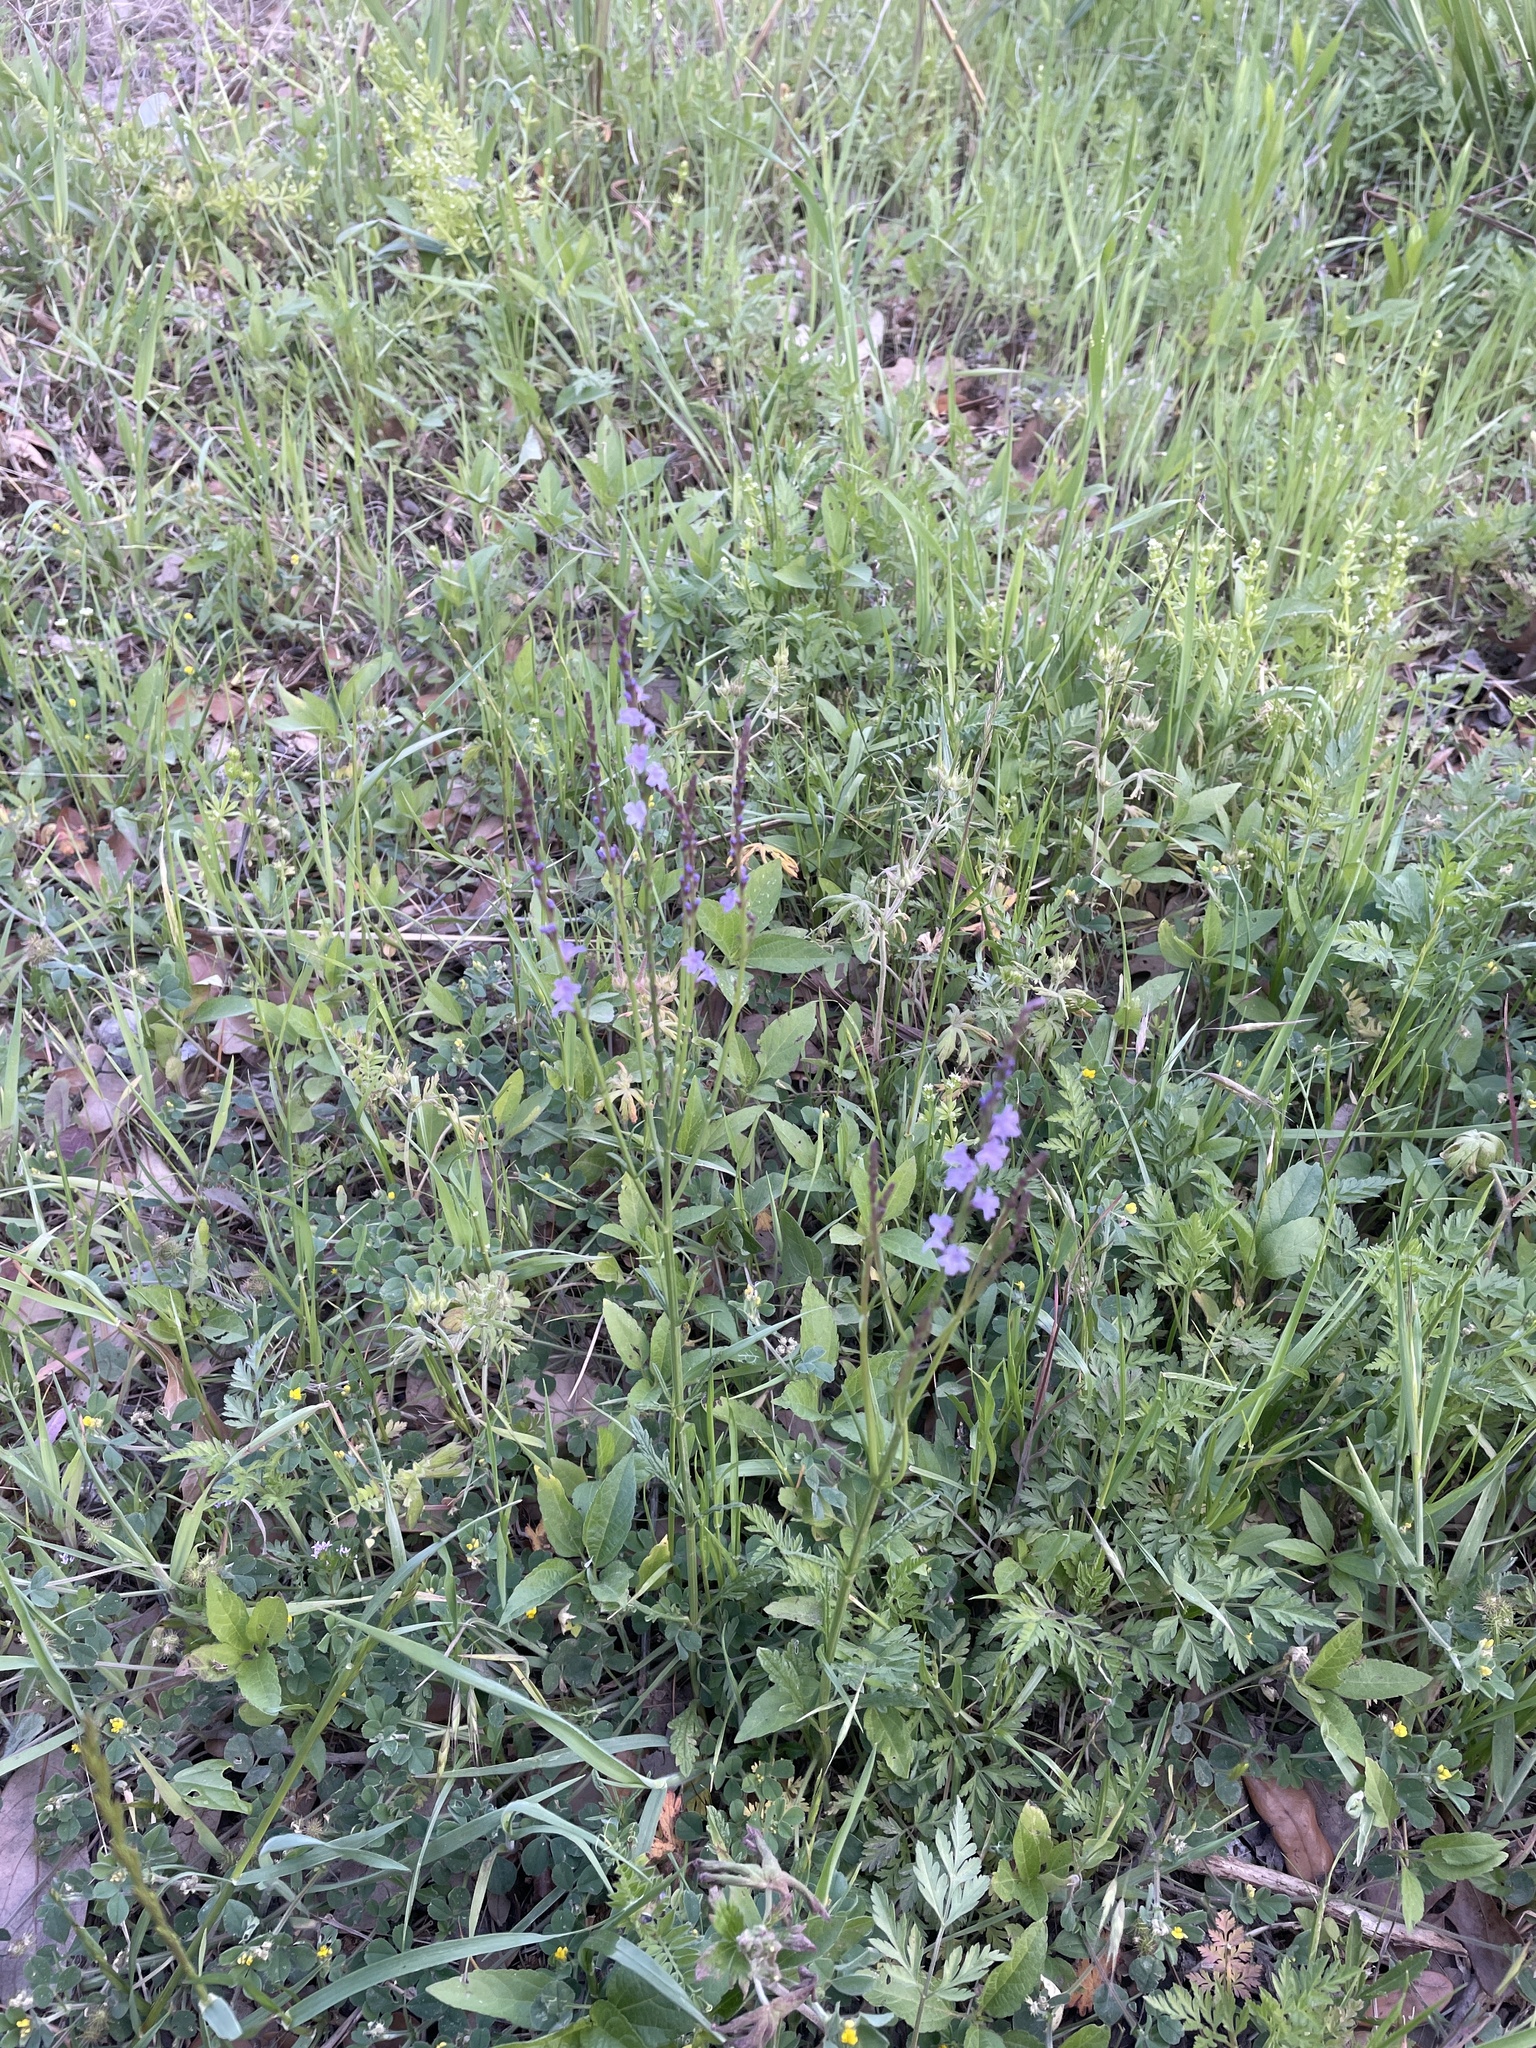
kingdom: Plantae
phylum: Tracheophyta
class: Magnoliopsida
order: Lamiales
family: Verbenaceae
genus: Verbena
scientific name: Verbena halei
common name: Texas vervain
